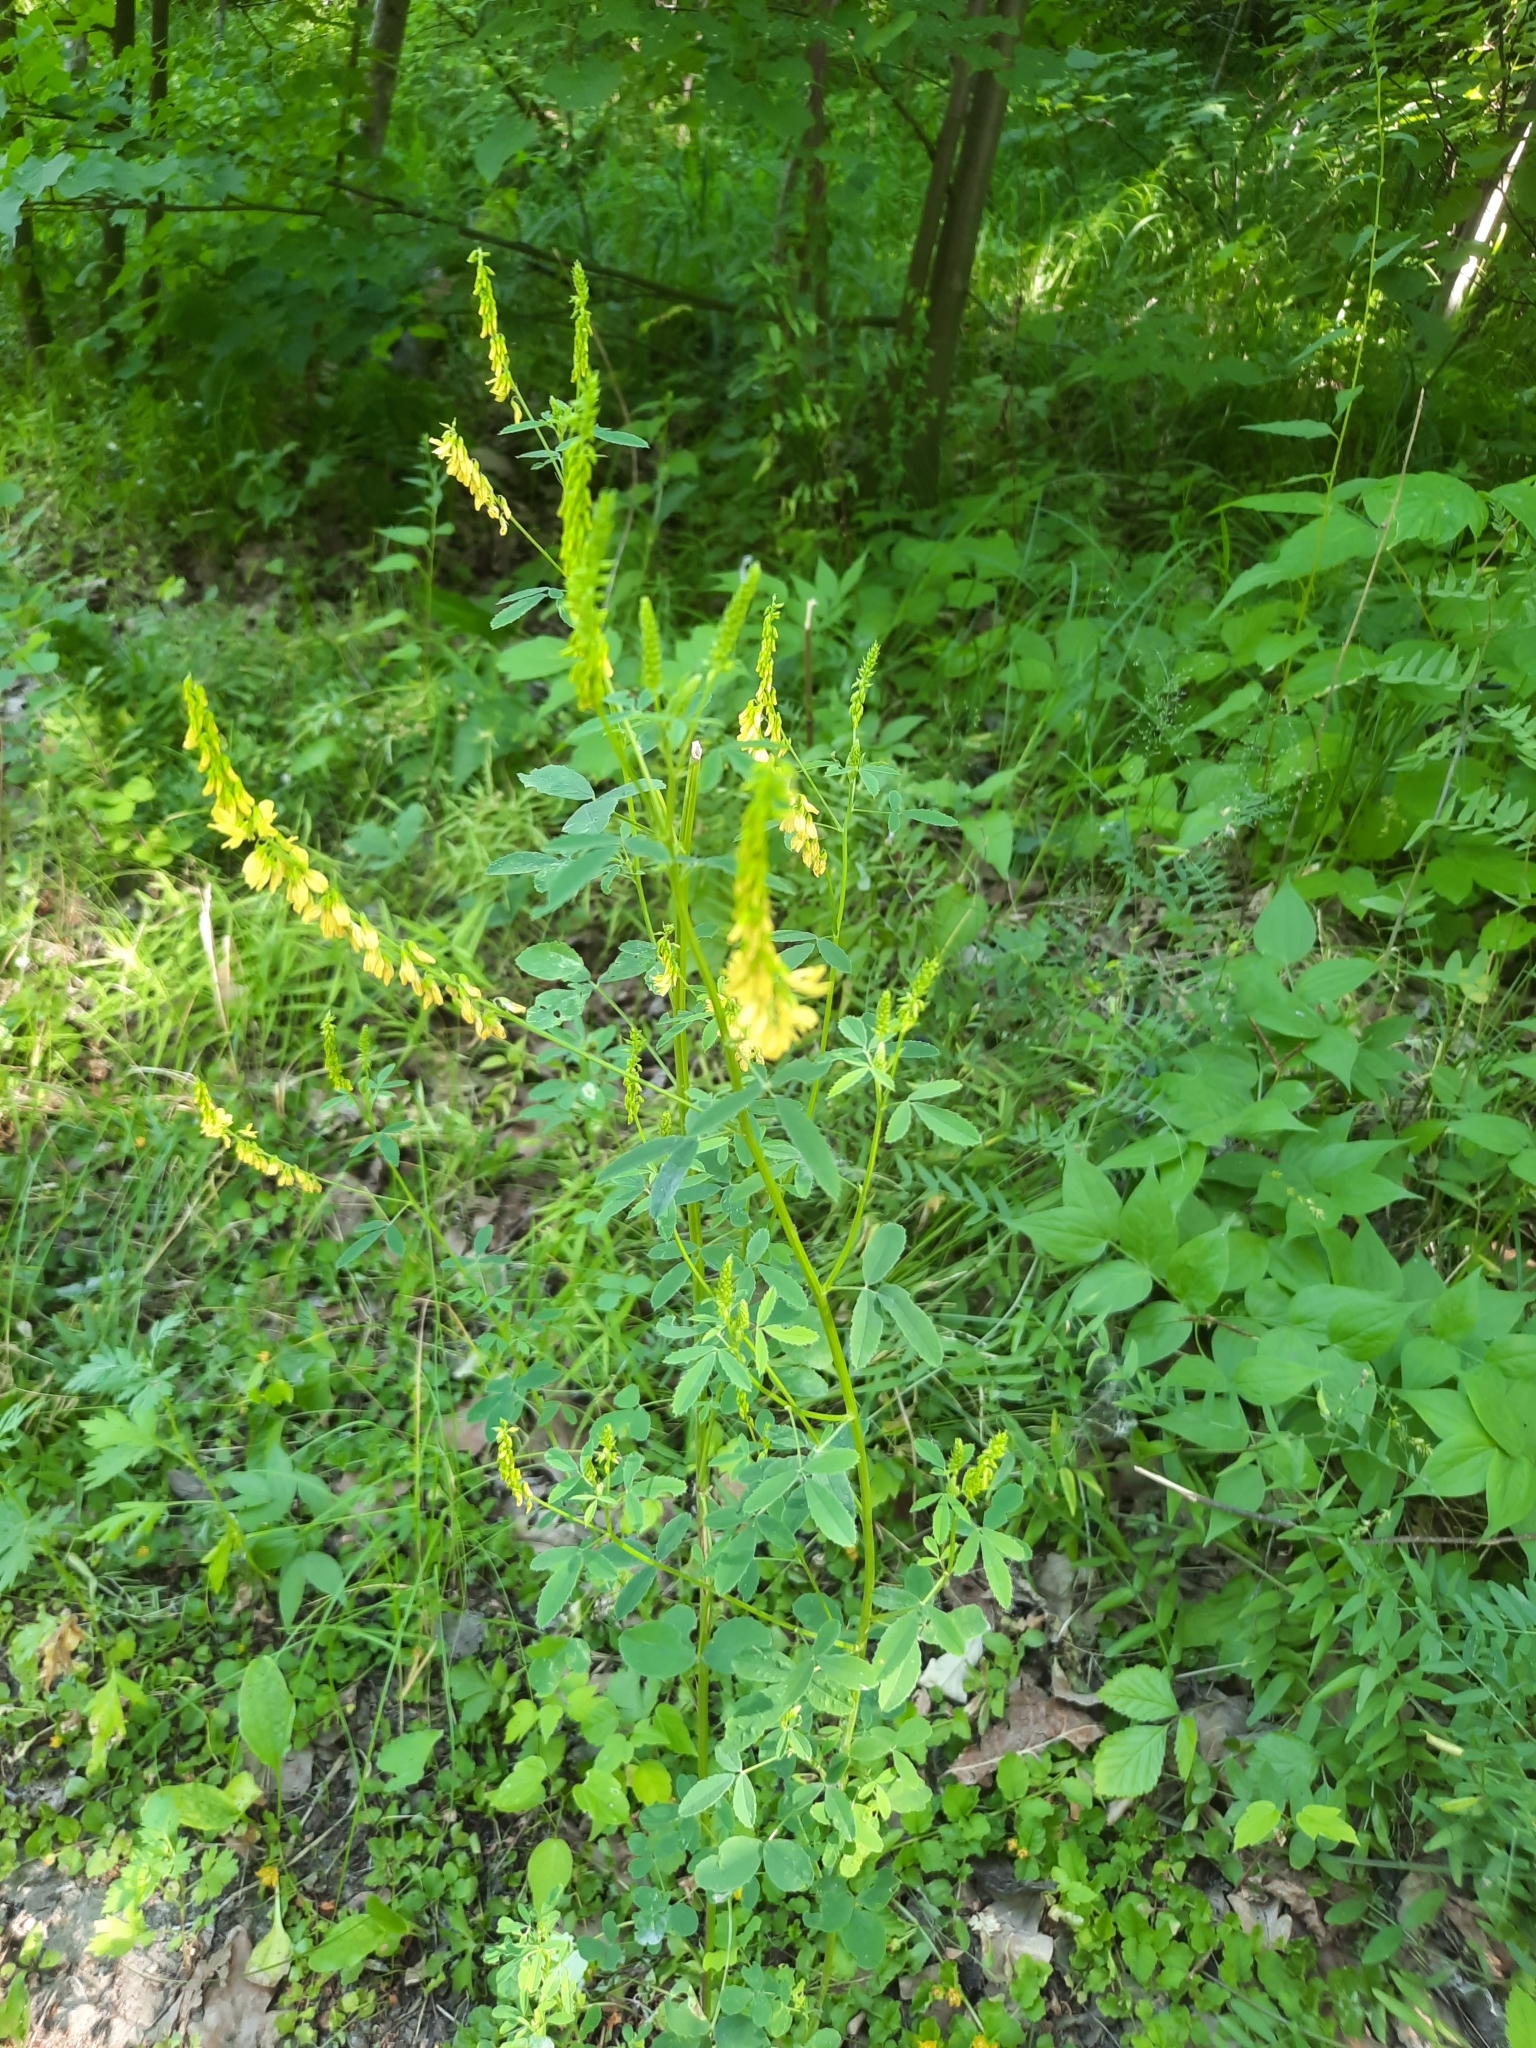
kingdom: Plantae
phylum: Tracheophyta
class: Magnoliopsida
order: Fabales
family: Fabaceae
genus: Melilotus
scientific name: Melilotus officinalis
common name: Sweetclover
